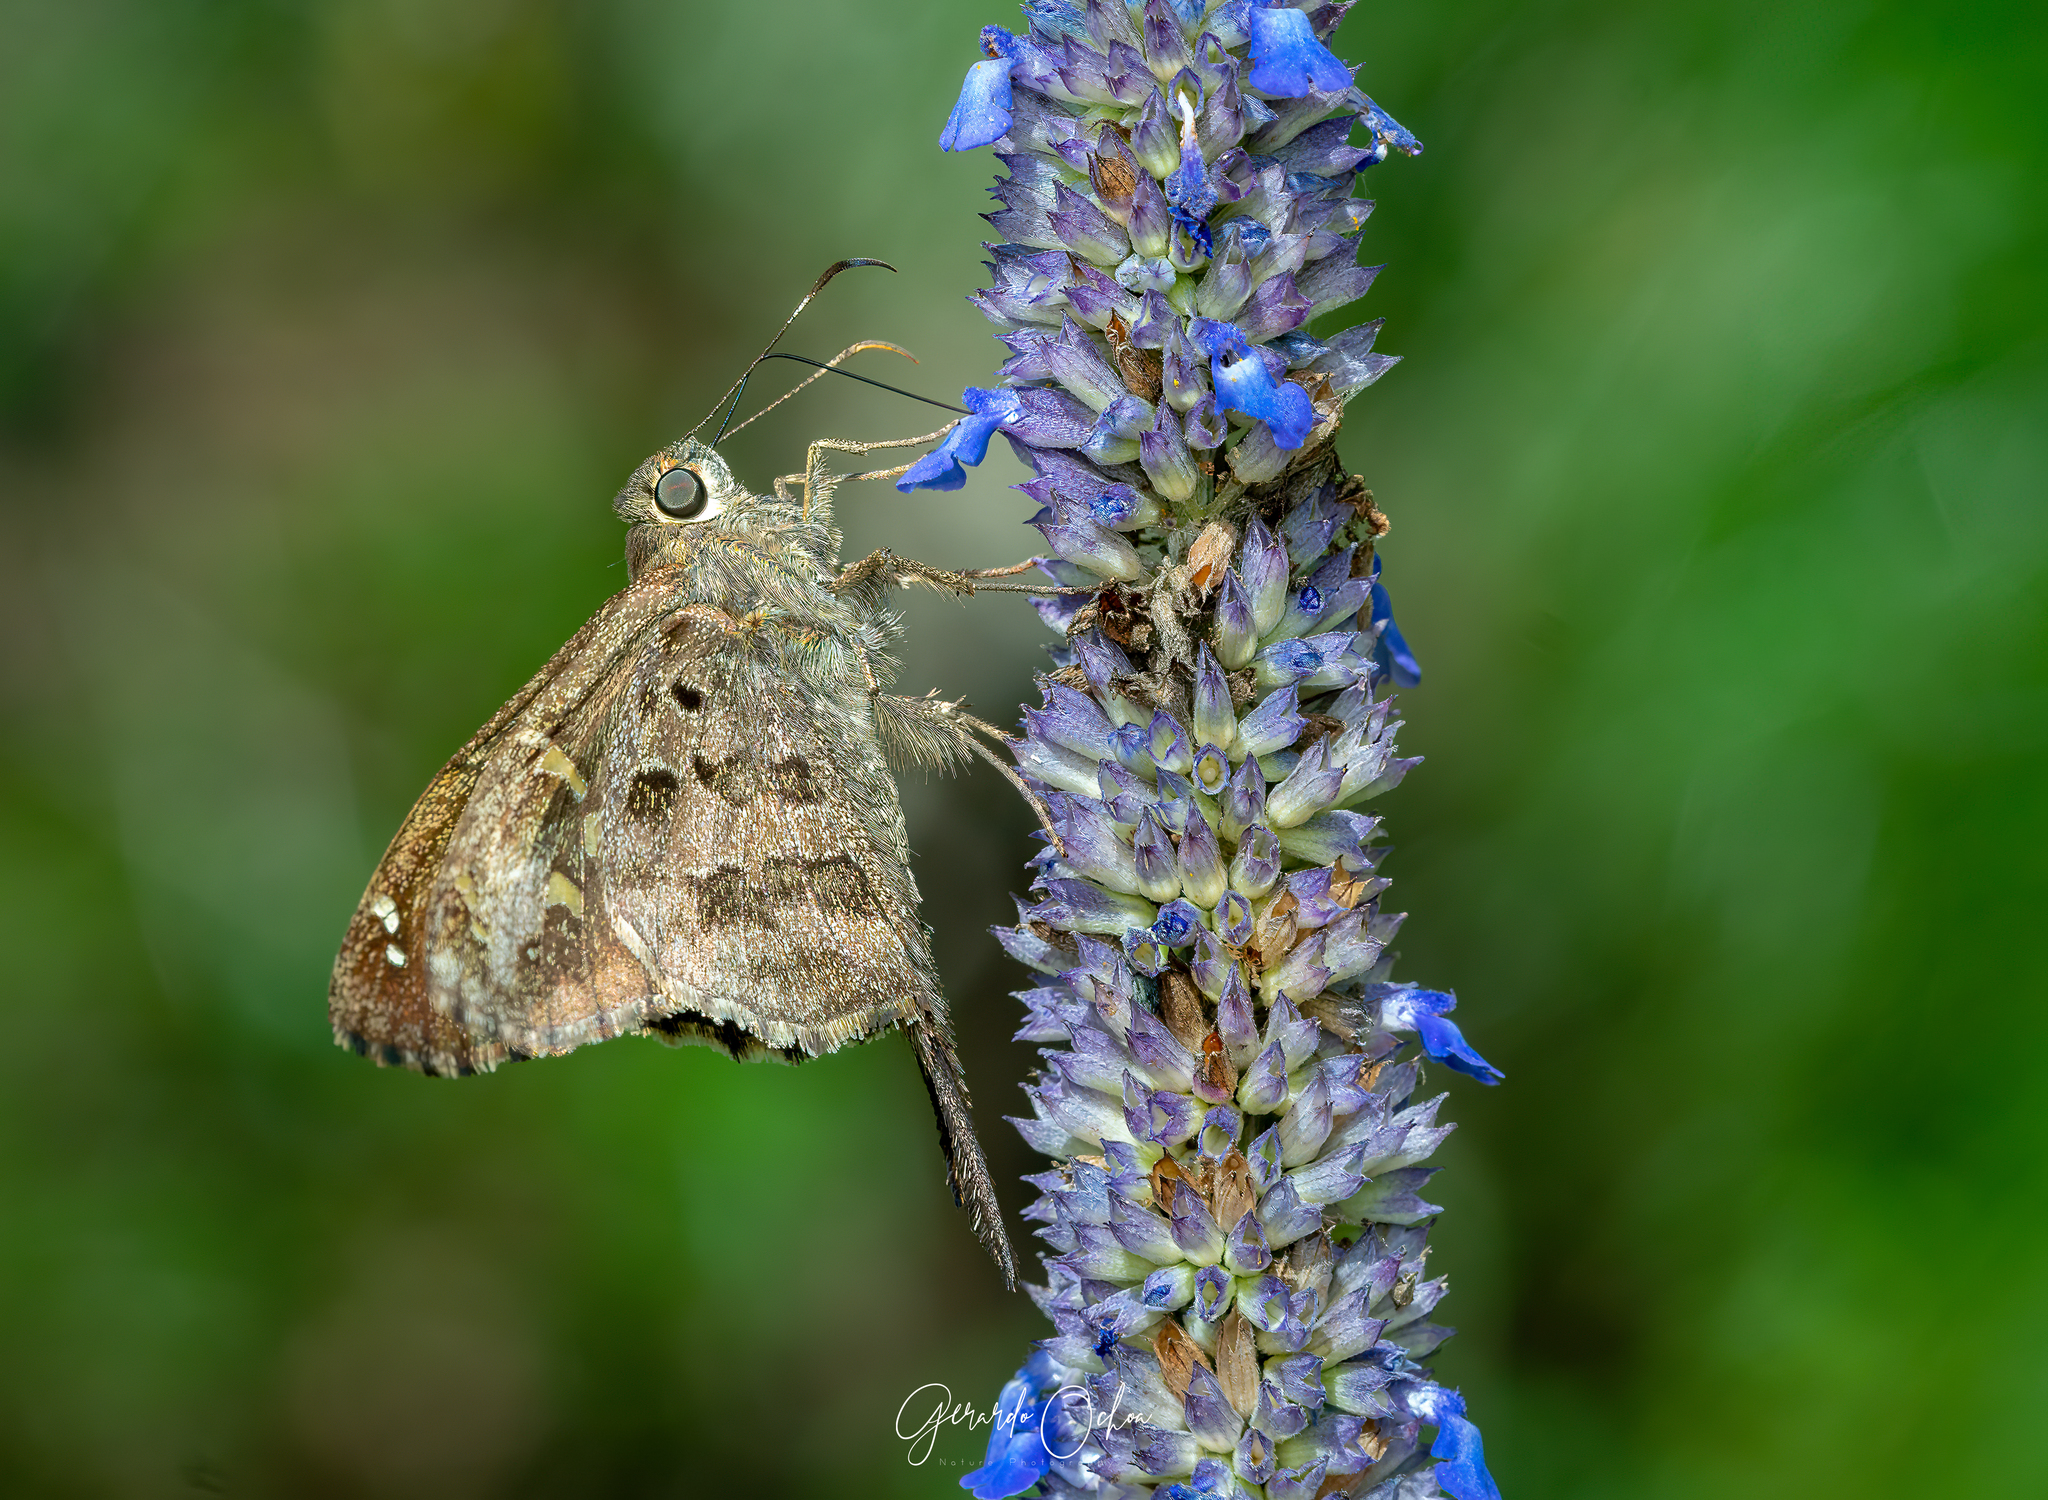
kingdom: Animalia
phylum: Arthropoda
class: Insecta
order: Lepidoptera
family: Hesperiidae
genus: Thorybes
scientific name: Thorybes
